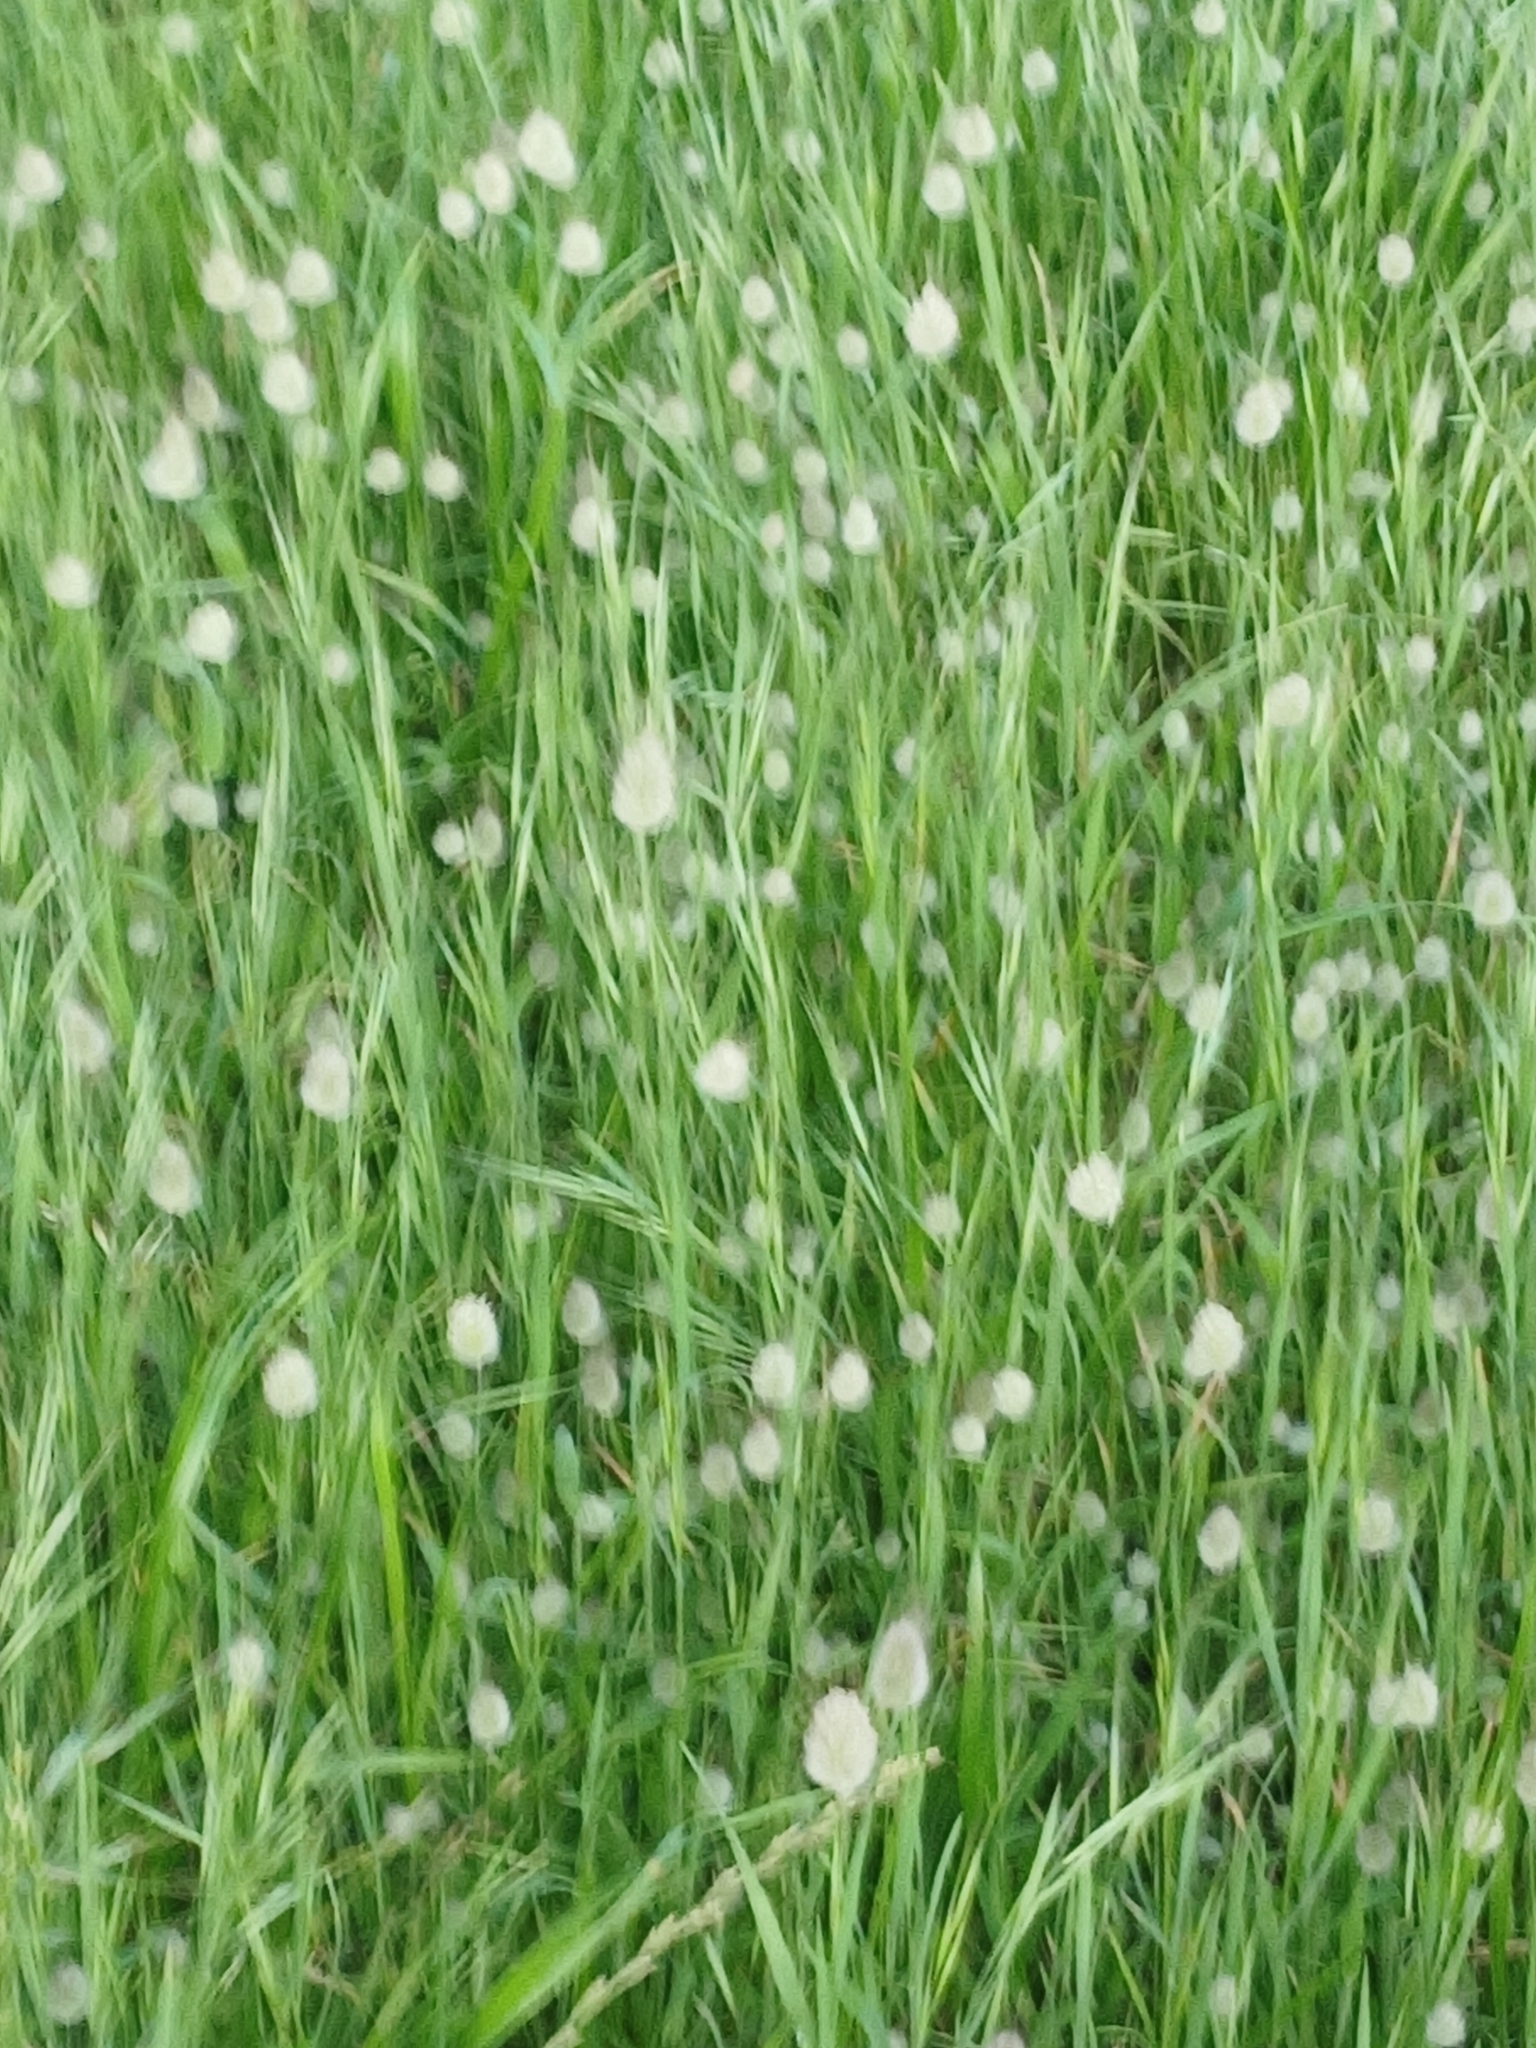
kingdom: Plantae
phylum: Tracheophyta
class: Liliopsida
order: Poales
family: Poaceae
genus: Lagurus
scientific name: Lagurus ovatus
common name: Hare's-tail
